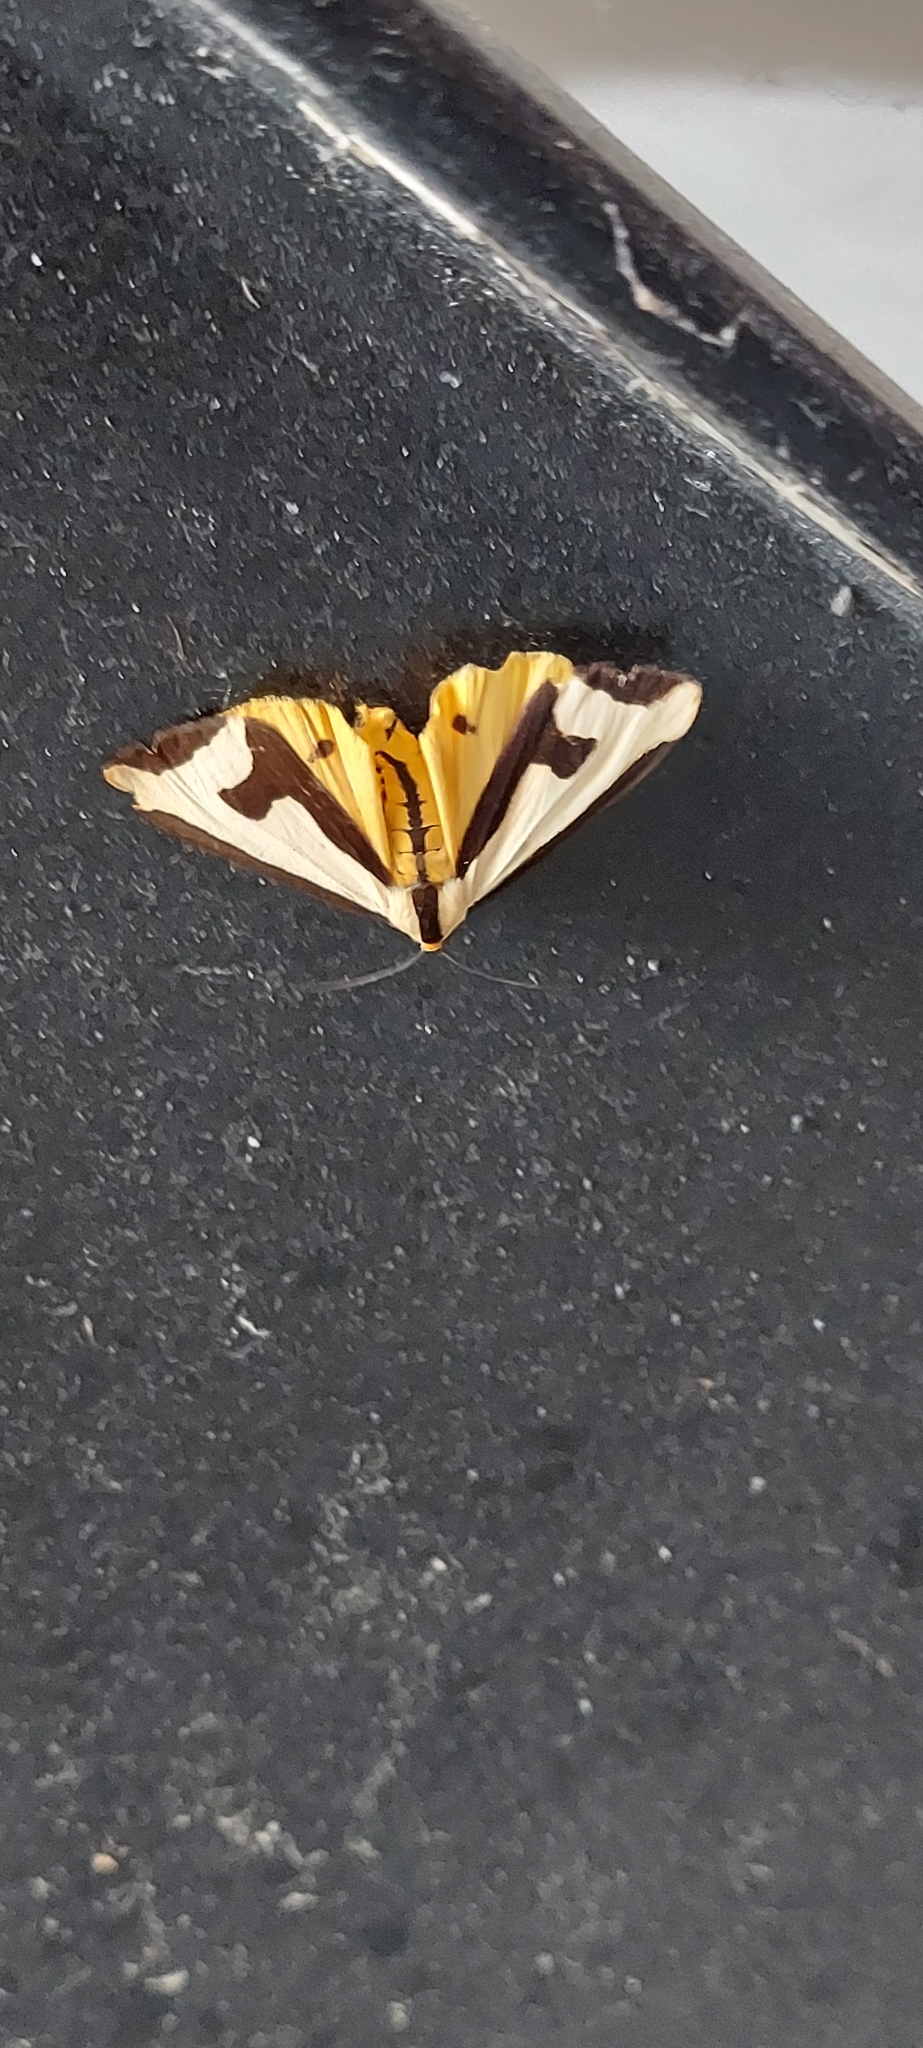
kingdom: Animalia
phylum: Arthropoda
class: Insecta
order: Lepidoptera
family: Erebidae
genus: Haploa
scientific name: Haploa clymene
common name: Clymene moth
